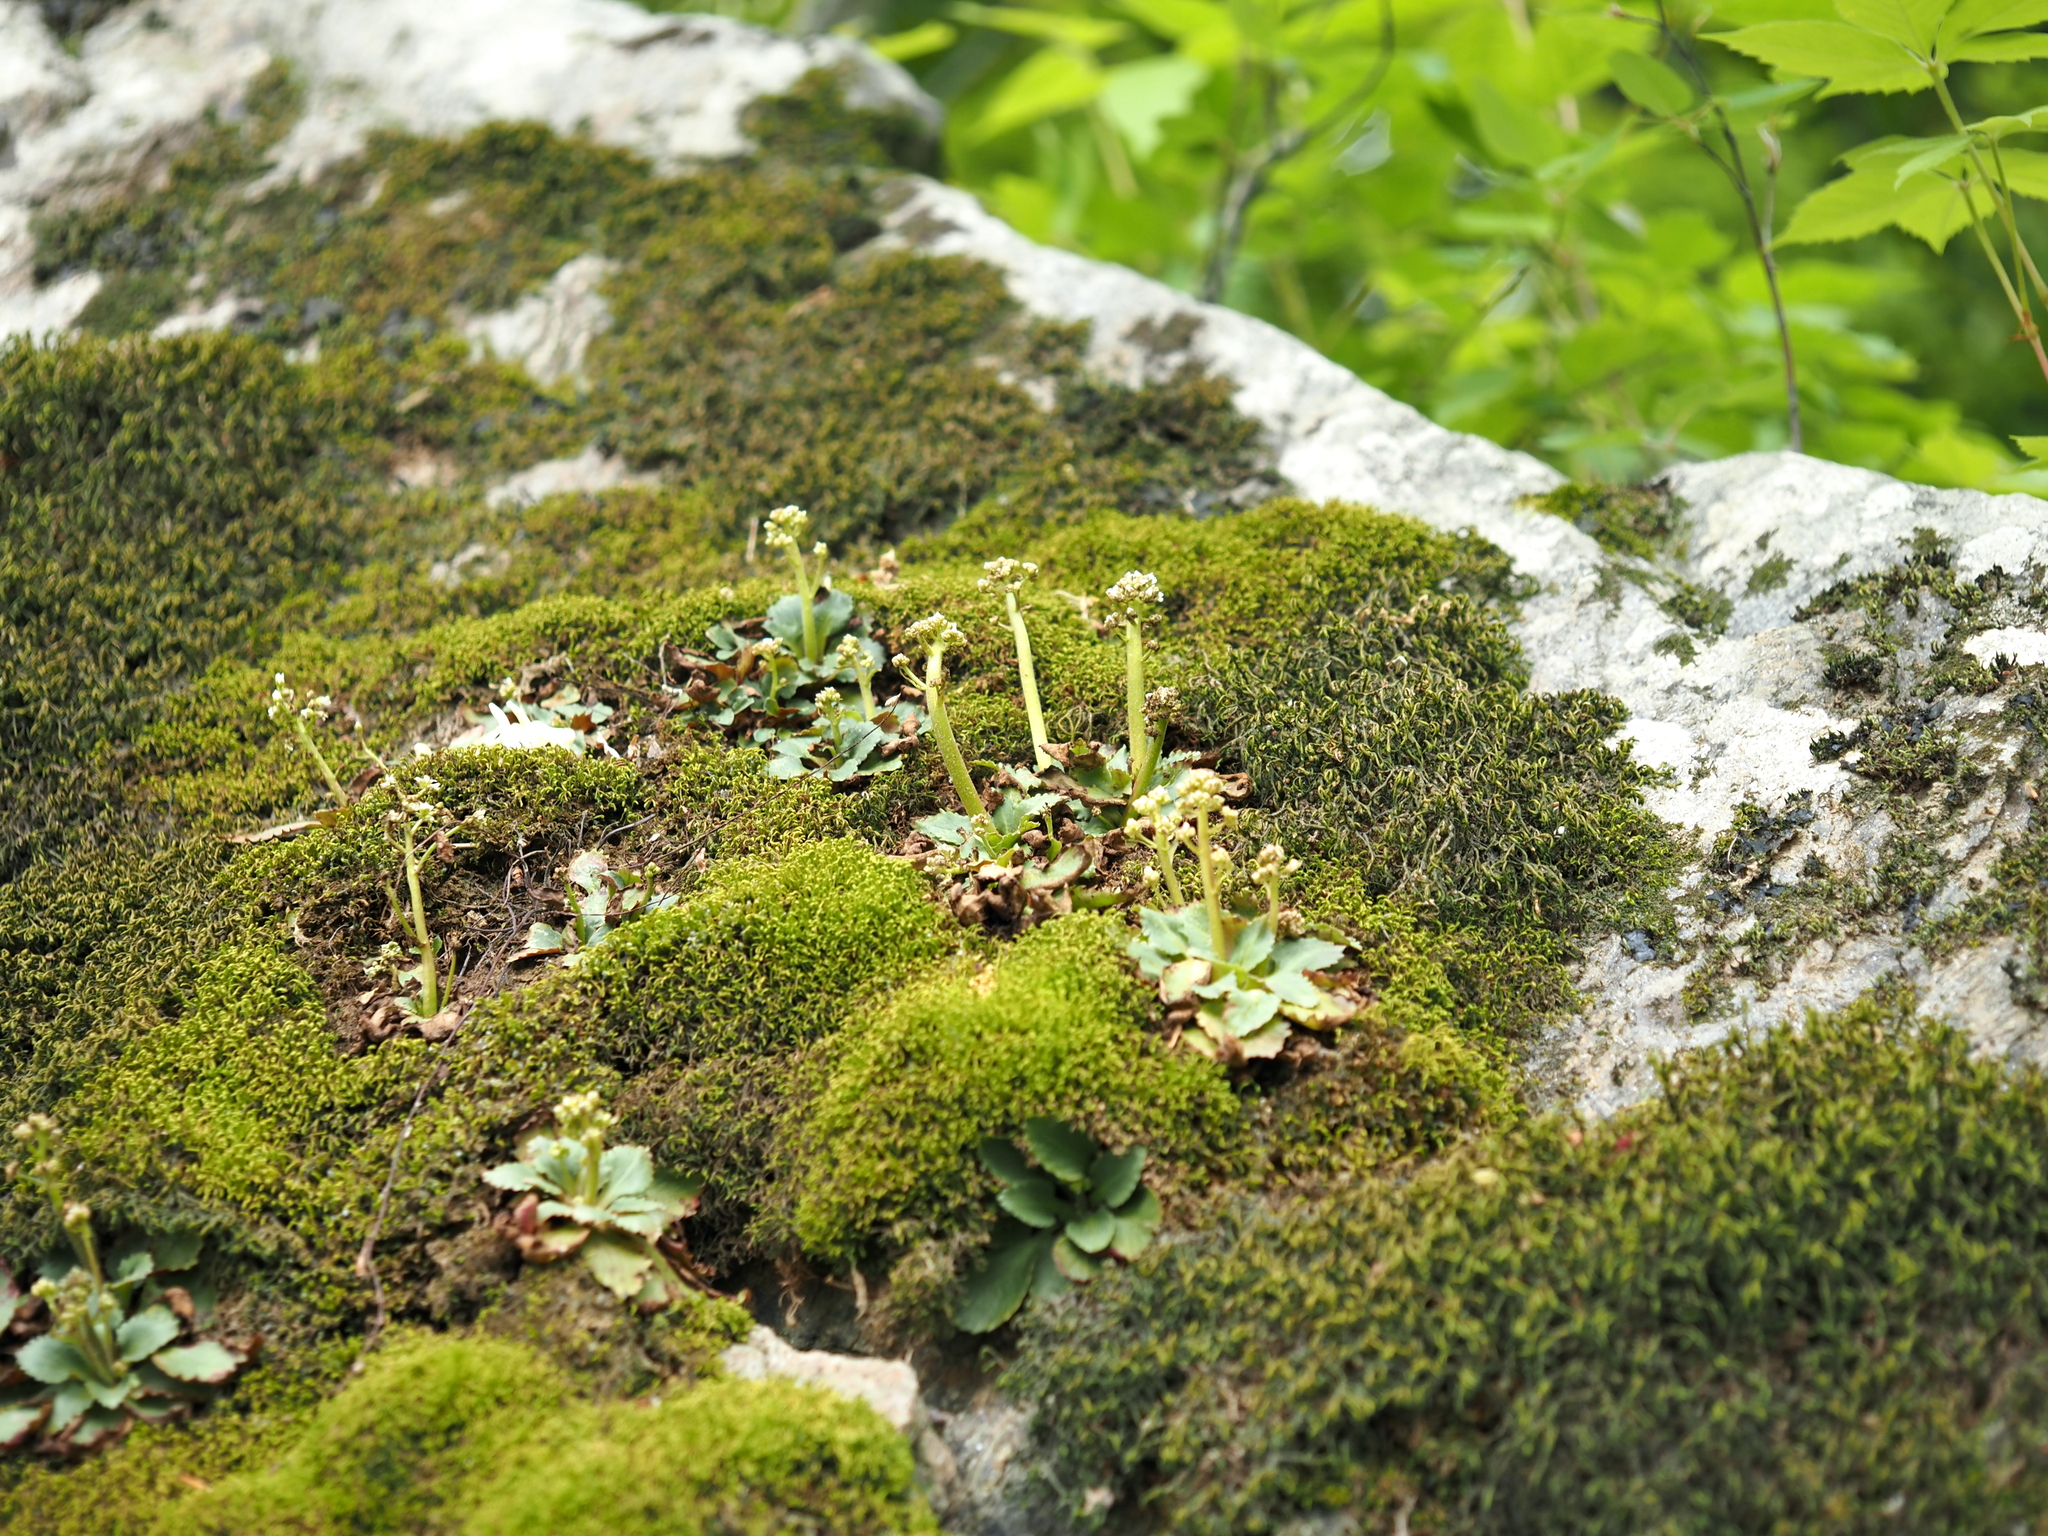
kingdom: Plantae
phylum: Tracheophyta
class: Magnoliopsida
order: Saxifragales
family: Saxifragaceae
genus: Micranthes
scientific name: Micranthes virginiensis
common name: Early saxifrage
